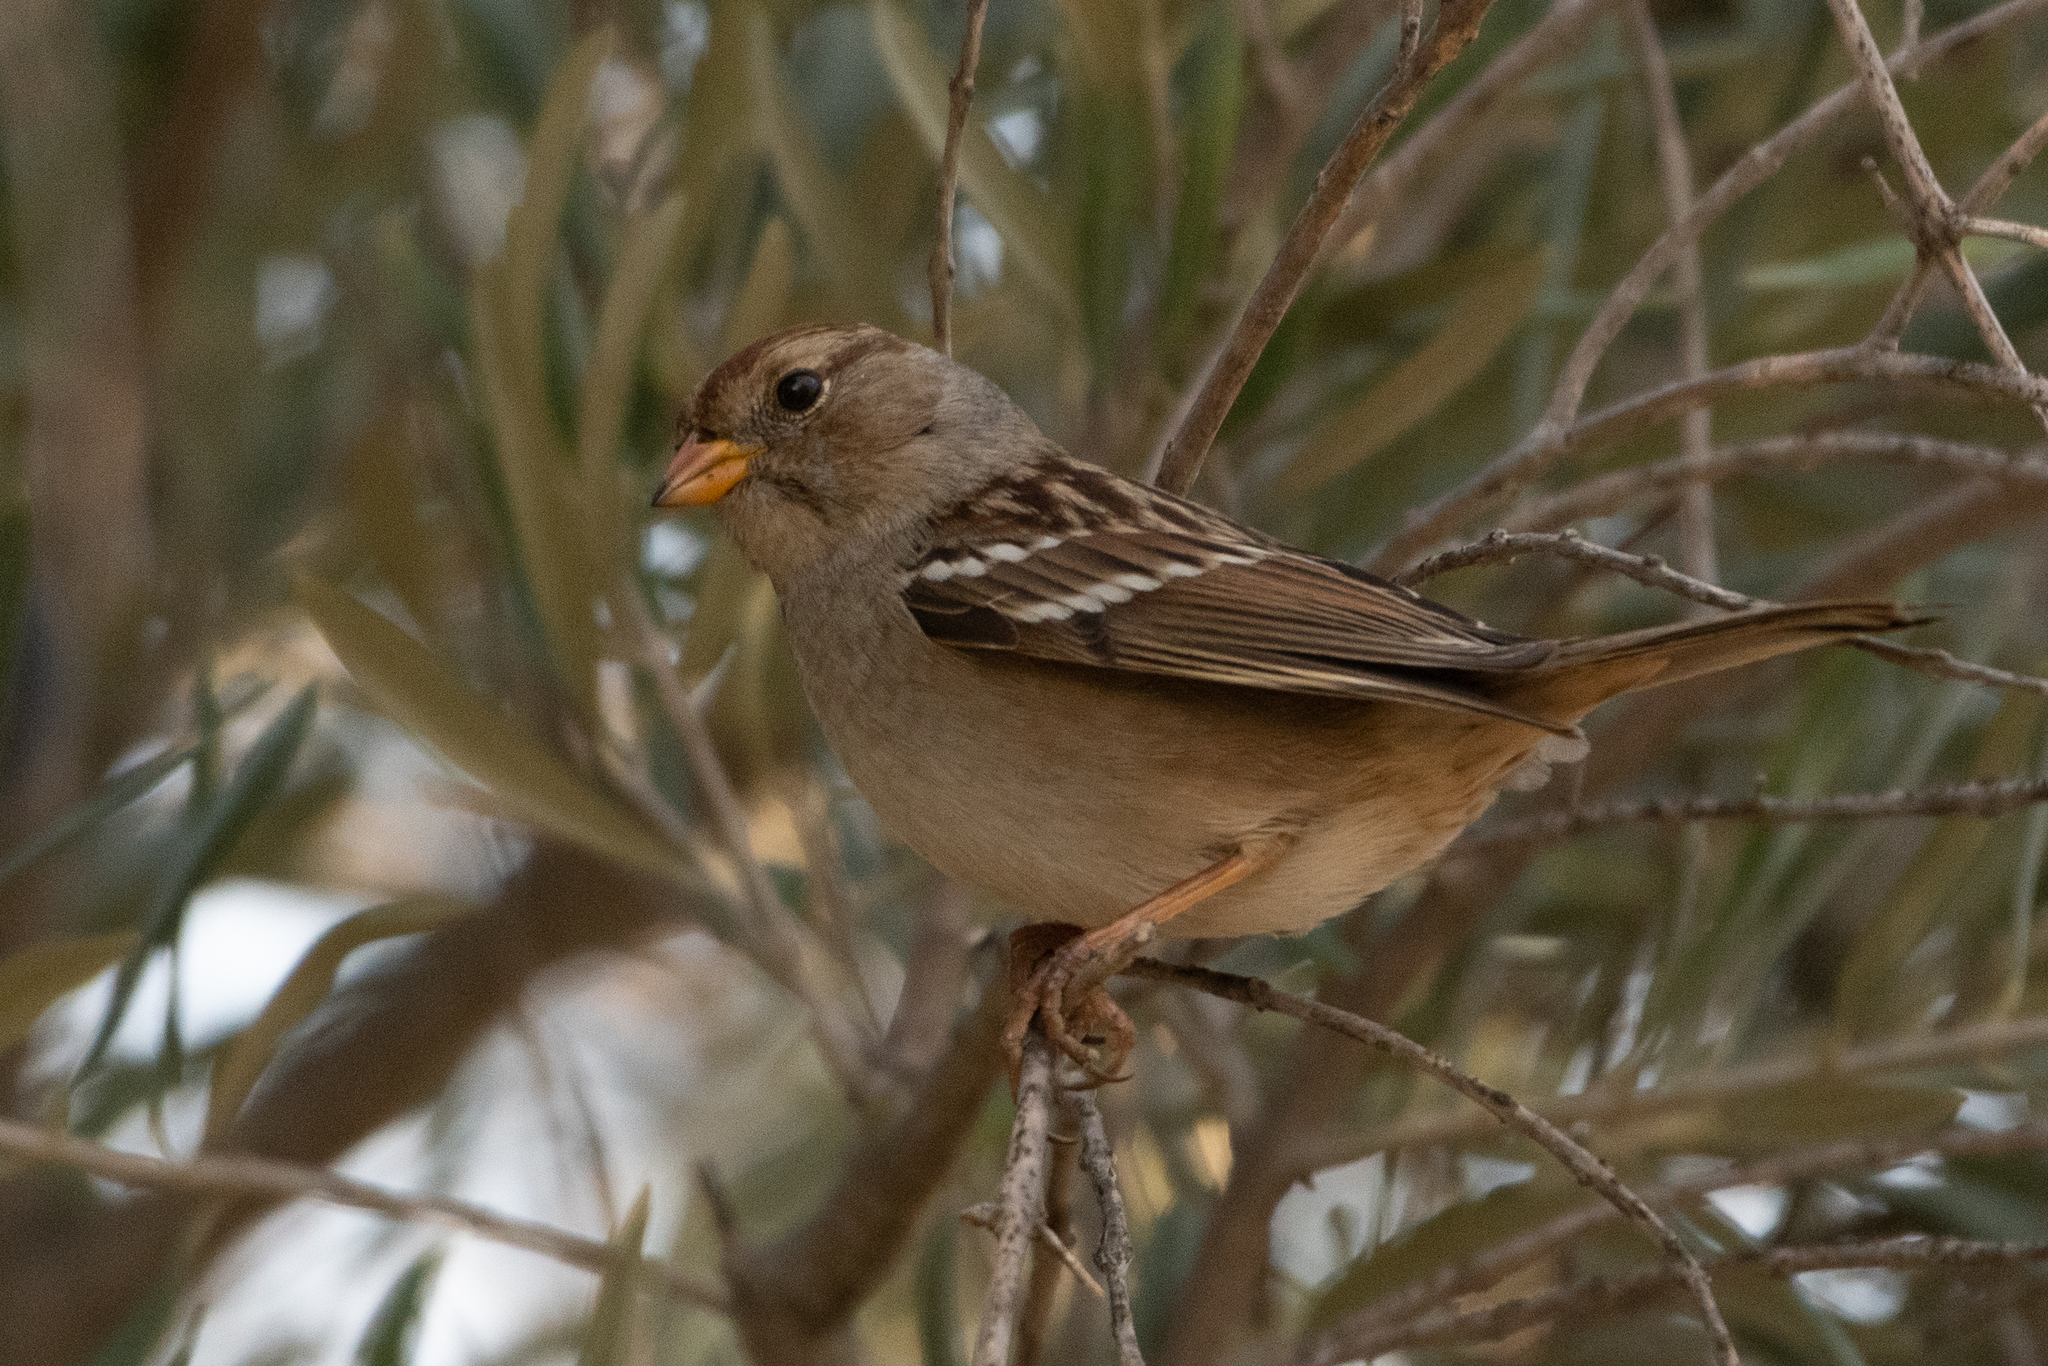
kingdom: Animalia
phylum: Chordata
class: Aves
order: Passeriformes
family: Passerellidae
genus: Zonotrichia
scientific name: Zonotrichia leucophrys
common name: White-crowned sparrow
